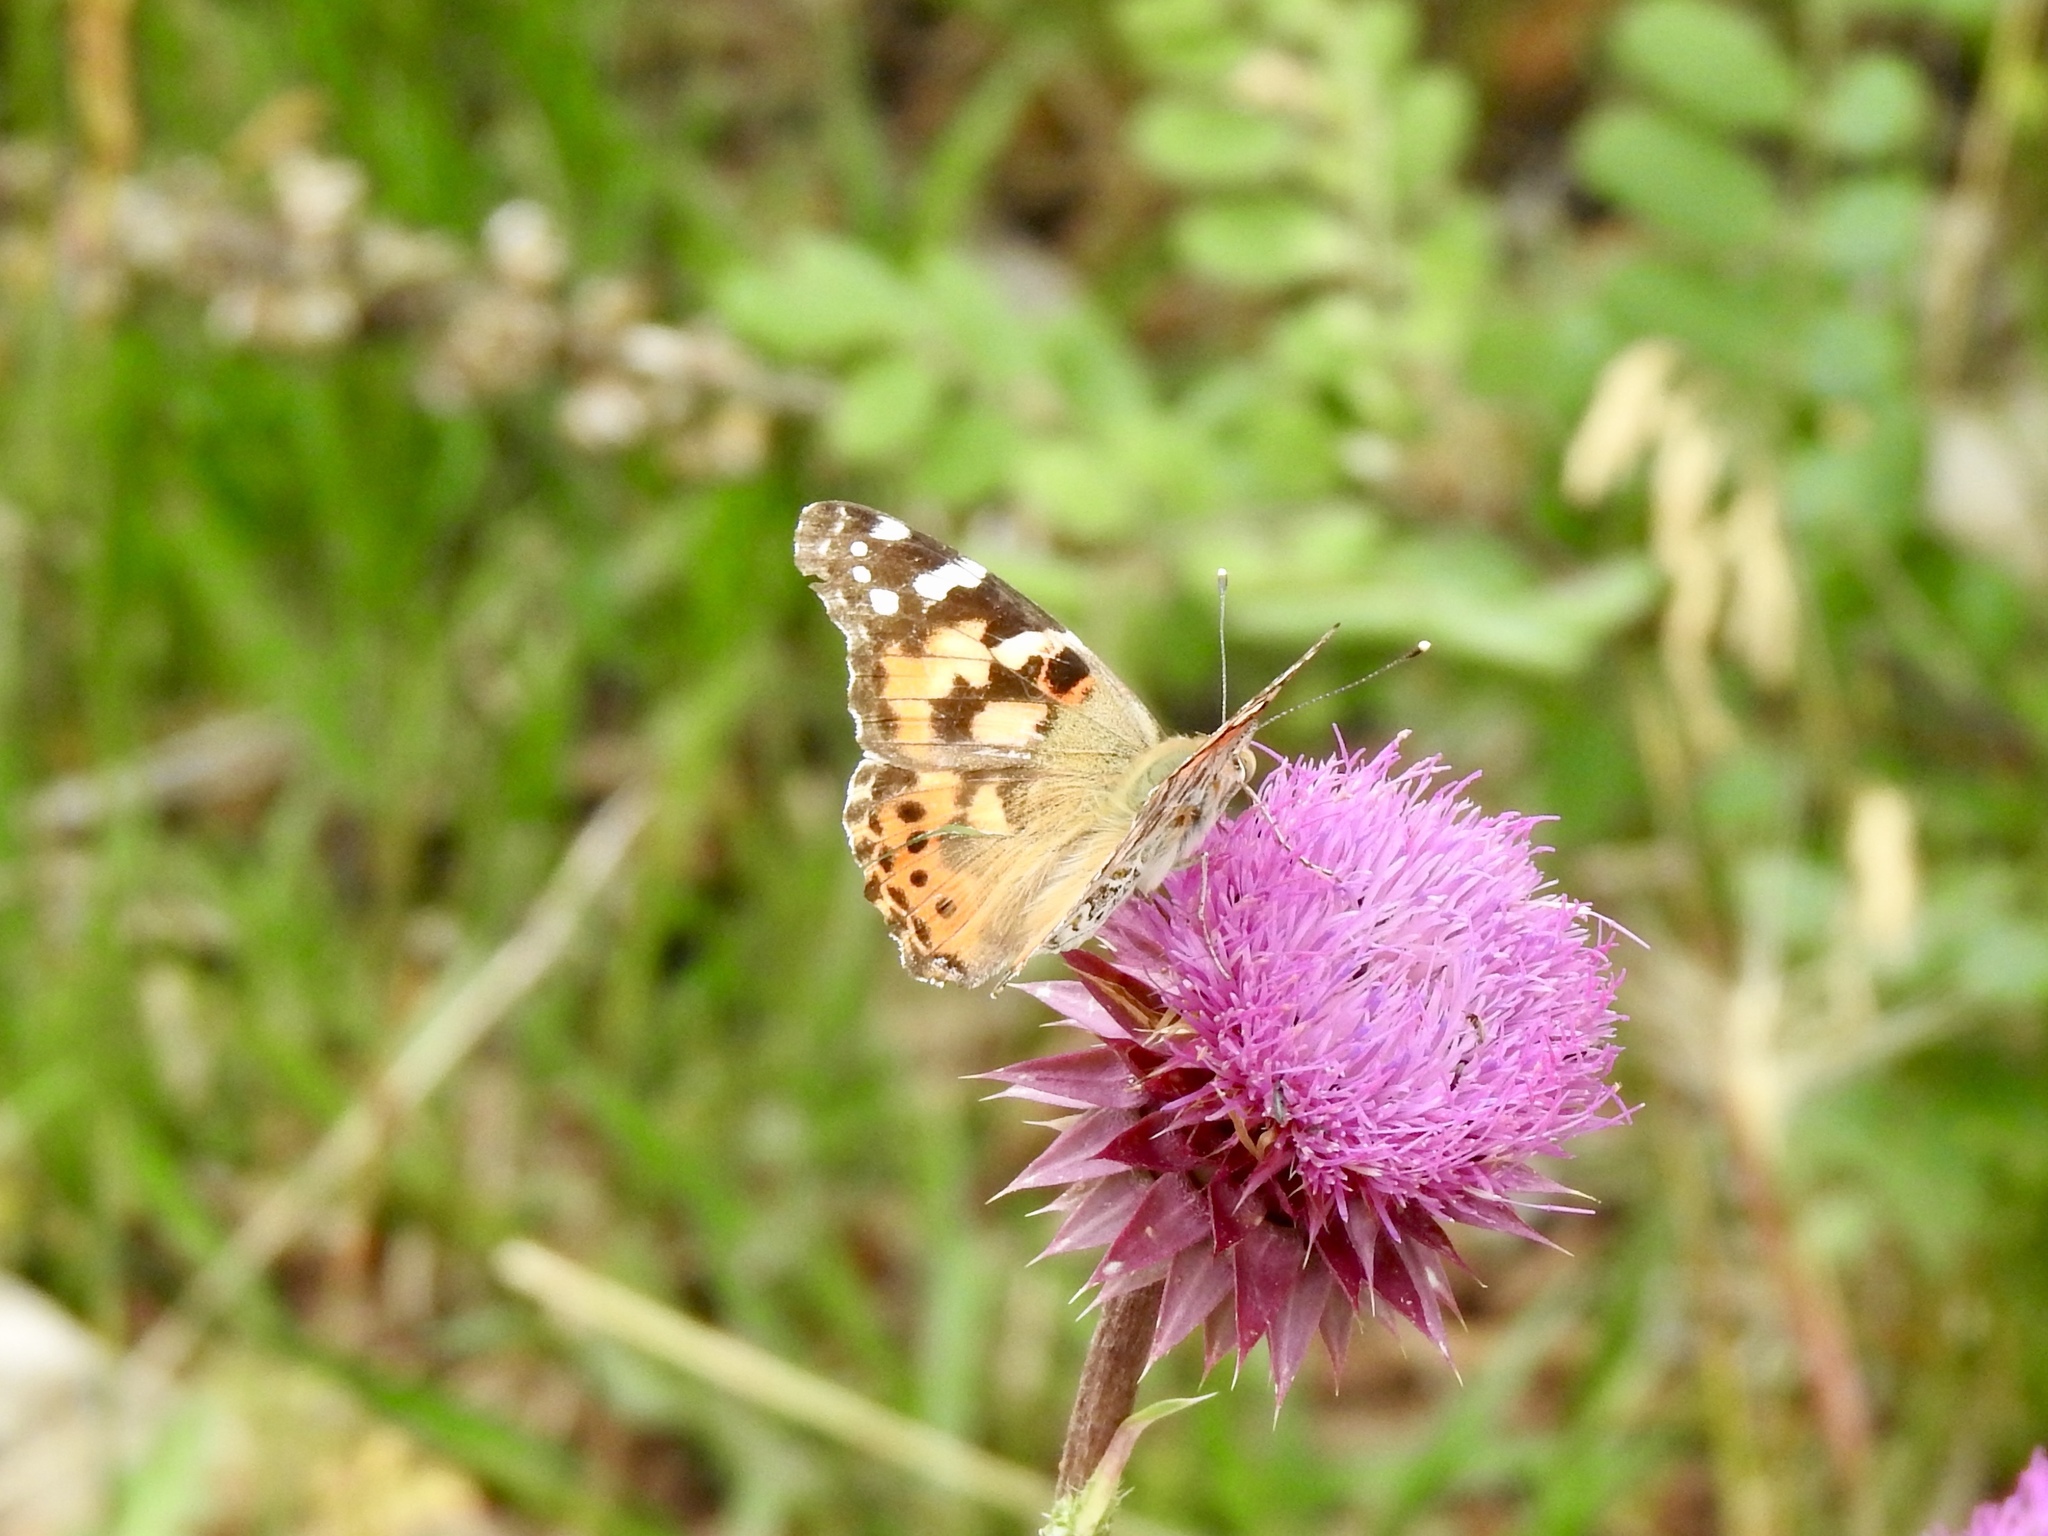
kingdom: Animalia
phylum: Arthropoda
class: Insecta
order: Lepidoptera
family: Nymphalidae
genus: Vanessa
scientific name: Vanessa cardui
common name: Painted lady
